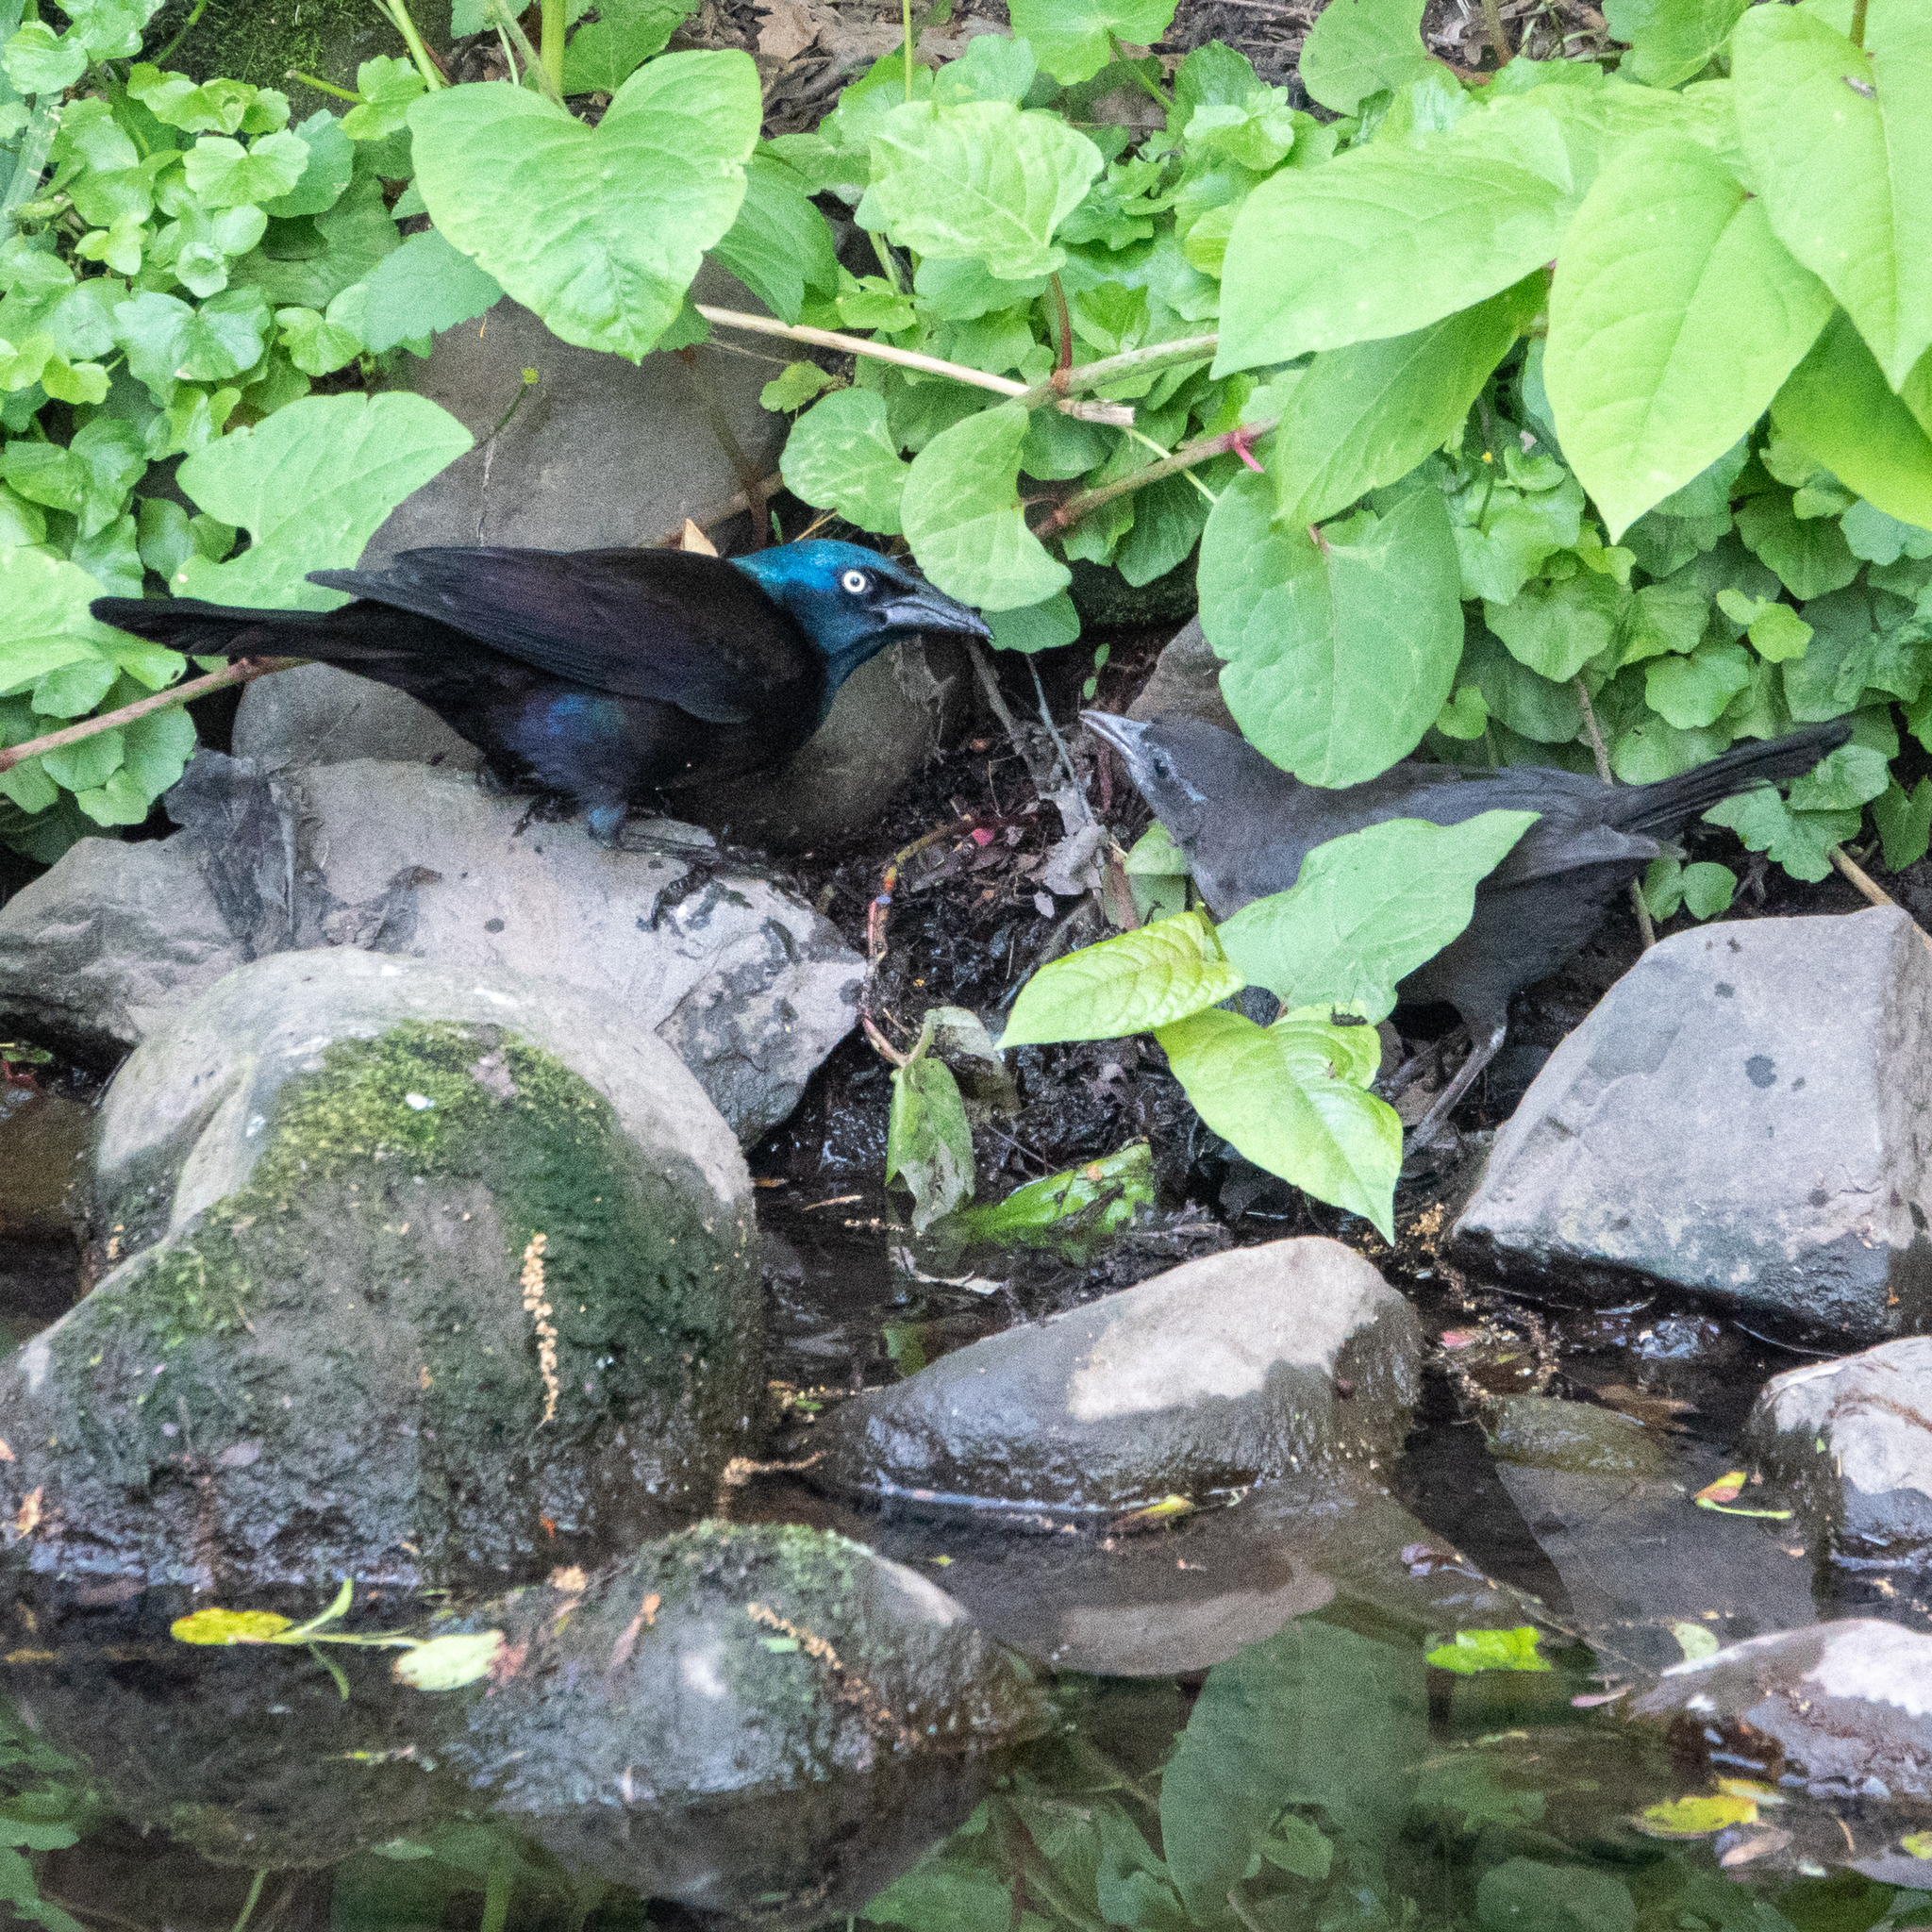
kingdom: Animalia
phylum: Chordata
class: Aves
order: Passeriformes
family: Icteridae
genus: Quiscalus
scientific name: Quiscalus quiscula
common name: Common grackle
